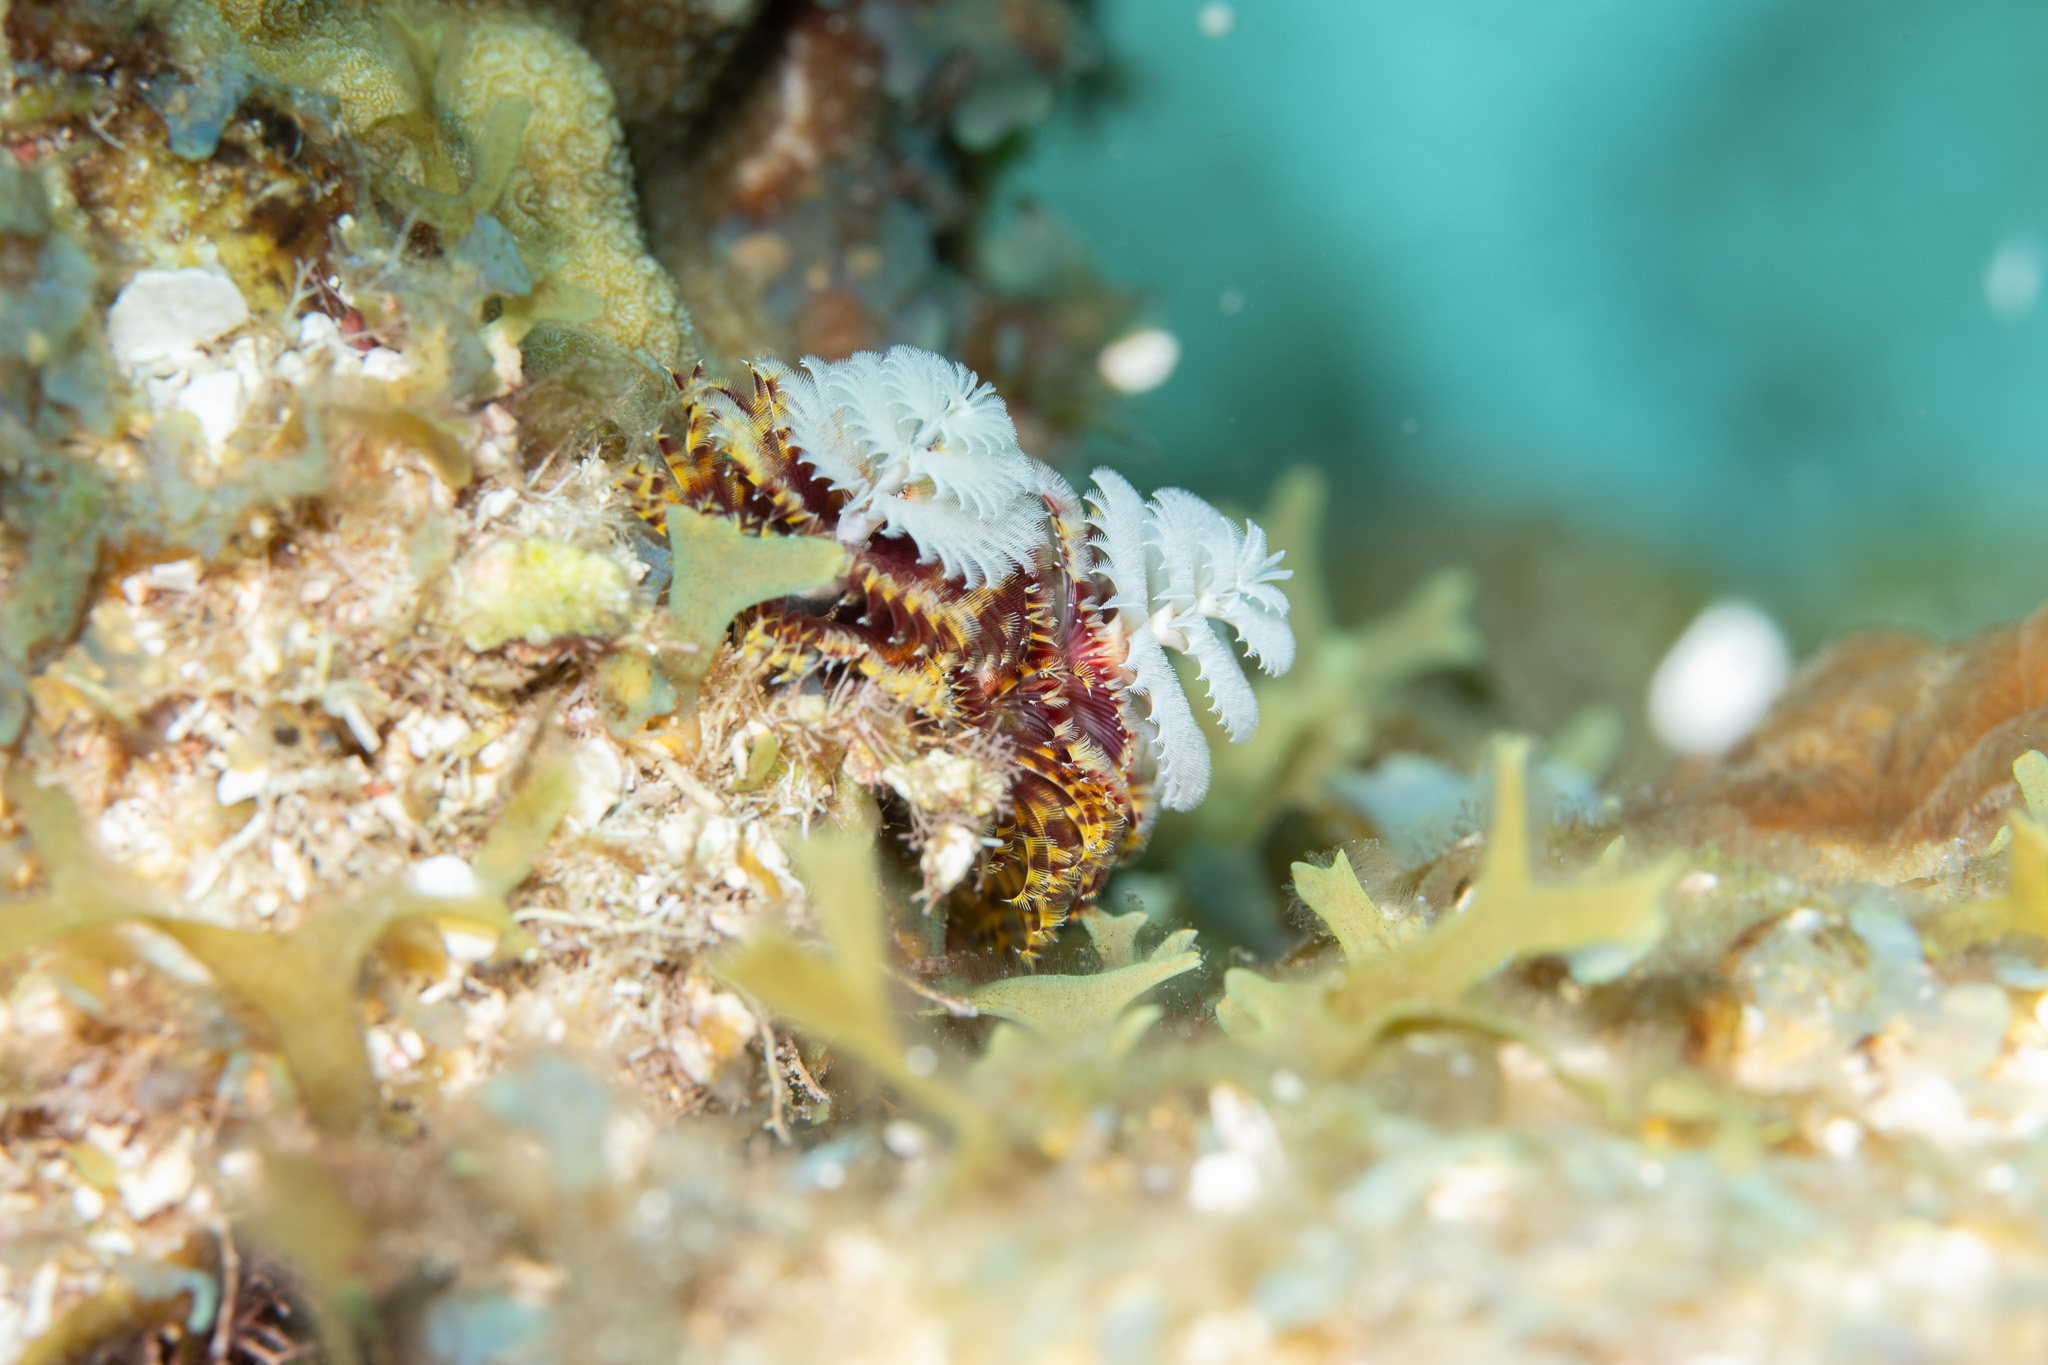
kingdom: Animalia
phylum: Annelida
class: Polychaeta
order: Sabellida
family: Serpulidae
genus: Spirobranchus
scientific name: Spirobranchus giganteus
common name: Christmas tree worm
